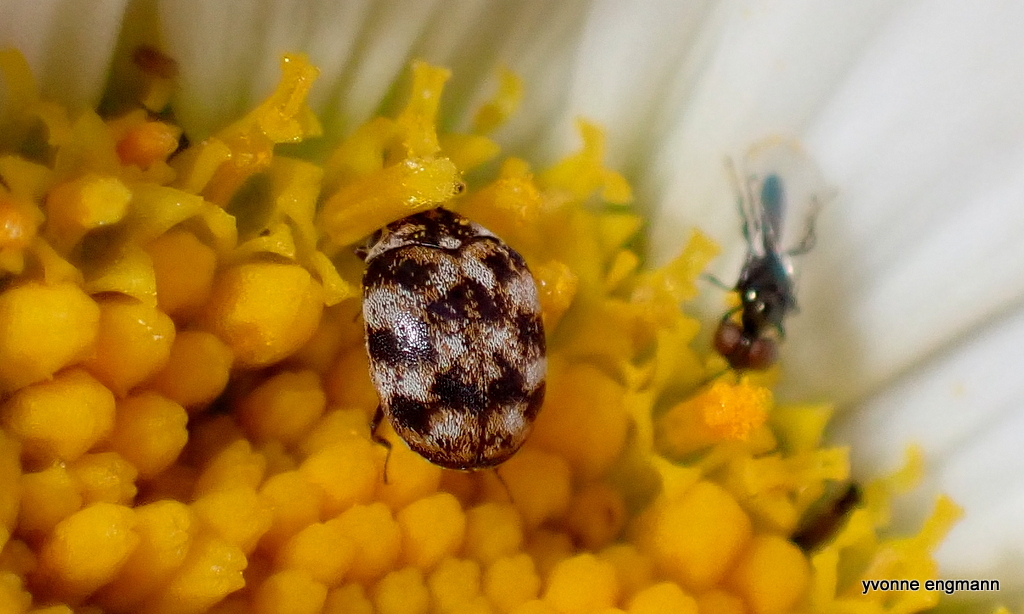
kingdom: Animalia
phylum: Arthropoda
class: Insecta
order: Coleoptera
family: Dermestidae
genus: Anthrenus
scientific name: Anthrenus verbasci
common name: Varied carpet beetle
